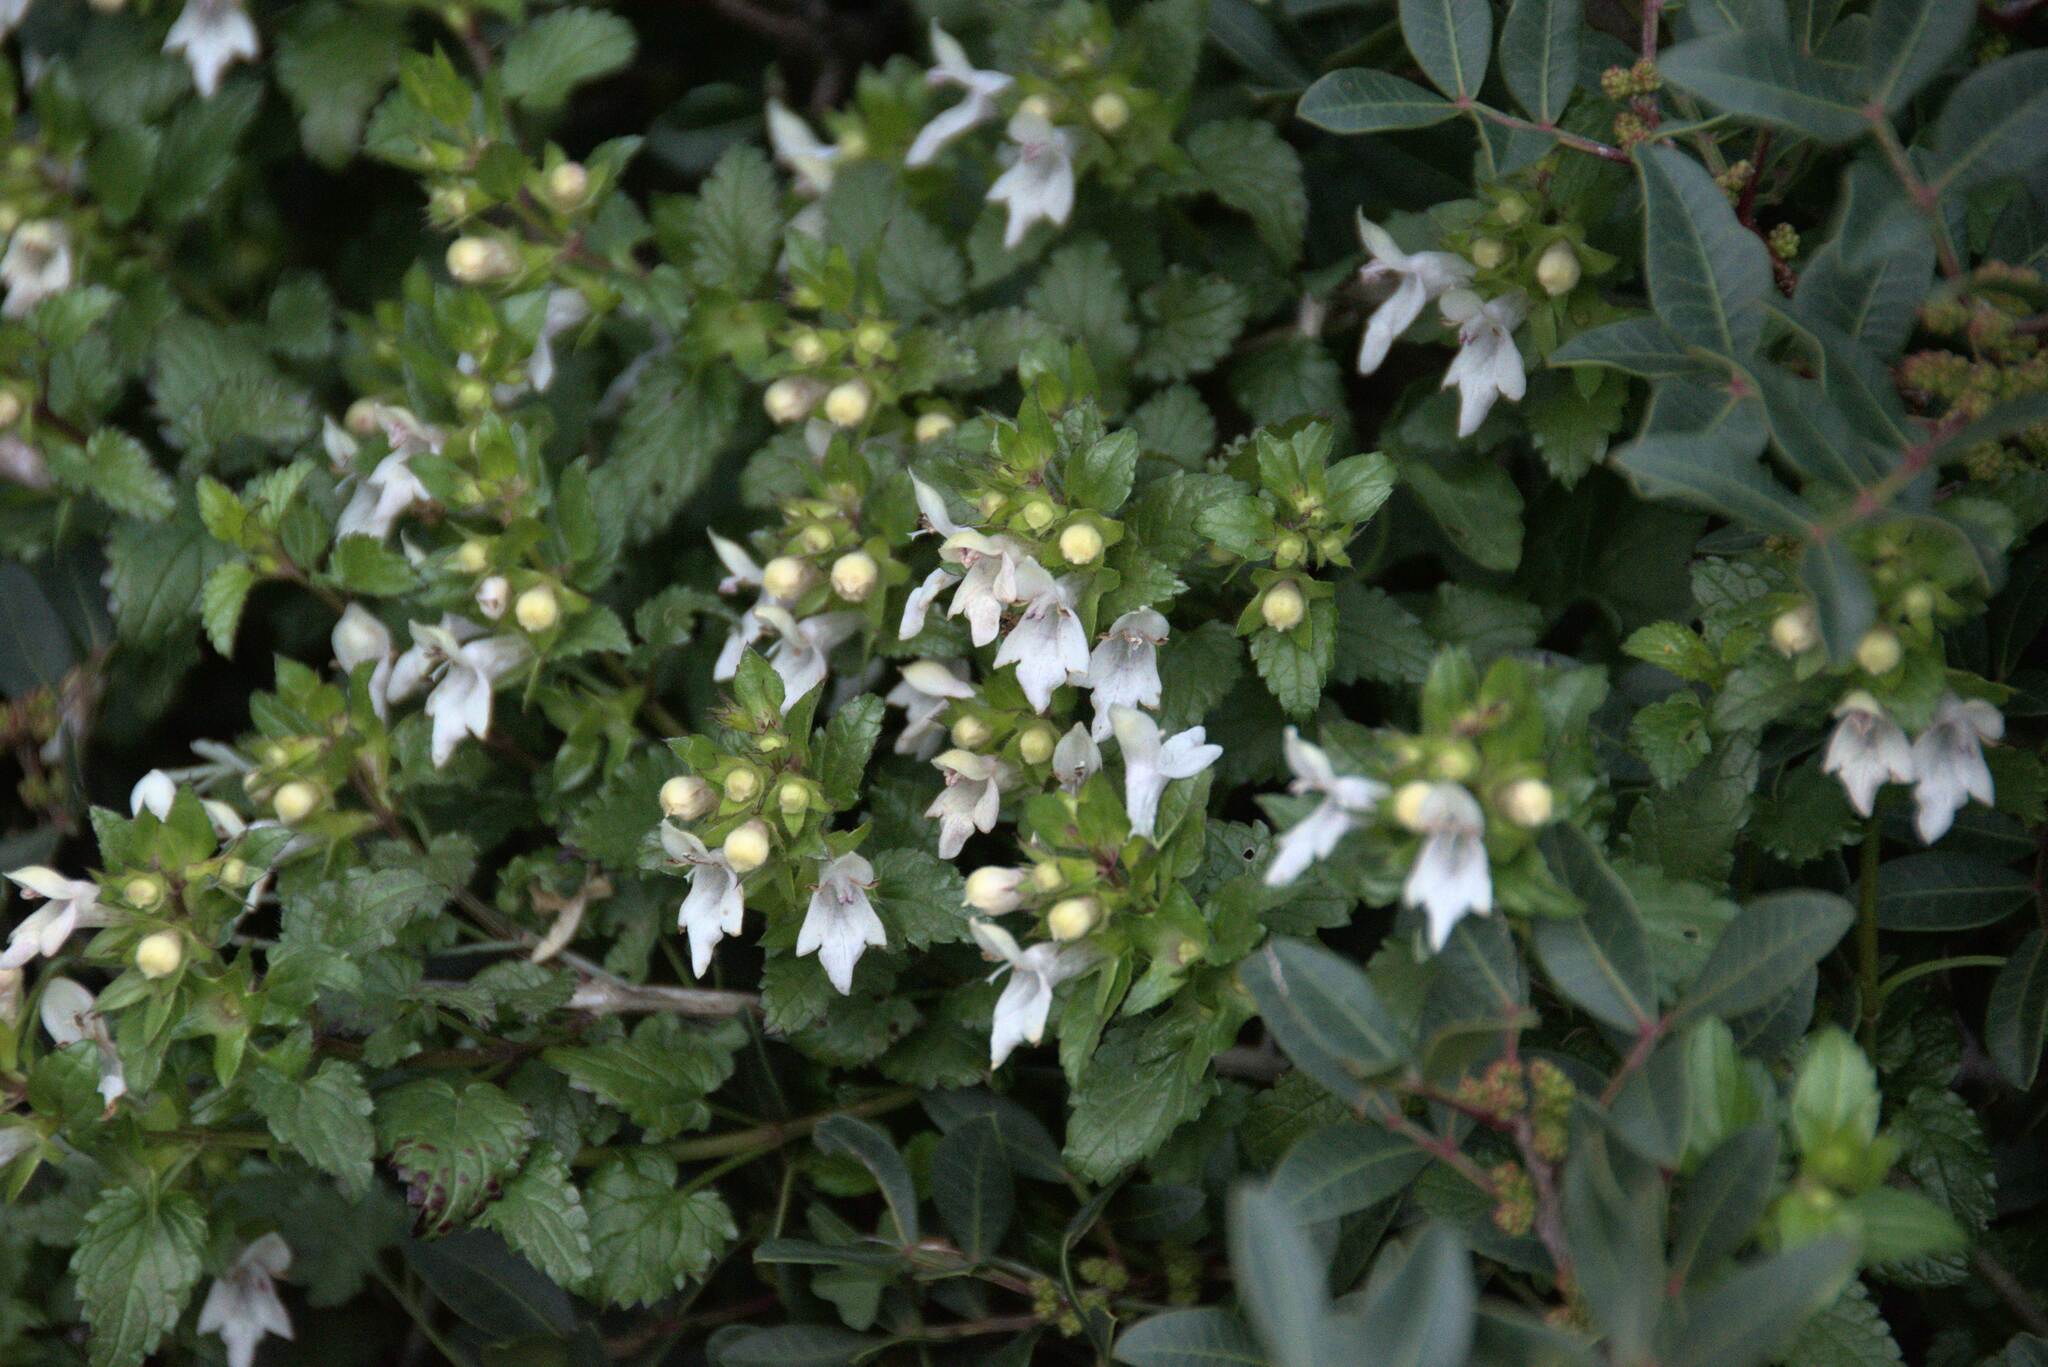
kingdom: Plantae
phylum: Tracheophyta
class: Magnoliopsida
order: Lamiales
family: Lamiaceae
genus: Prasium
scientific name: Prasium majus
